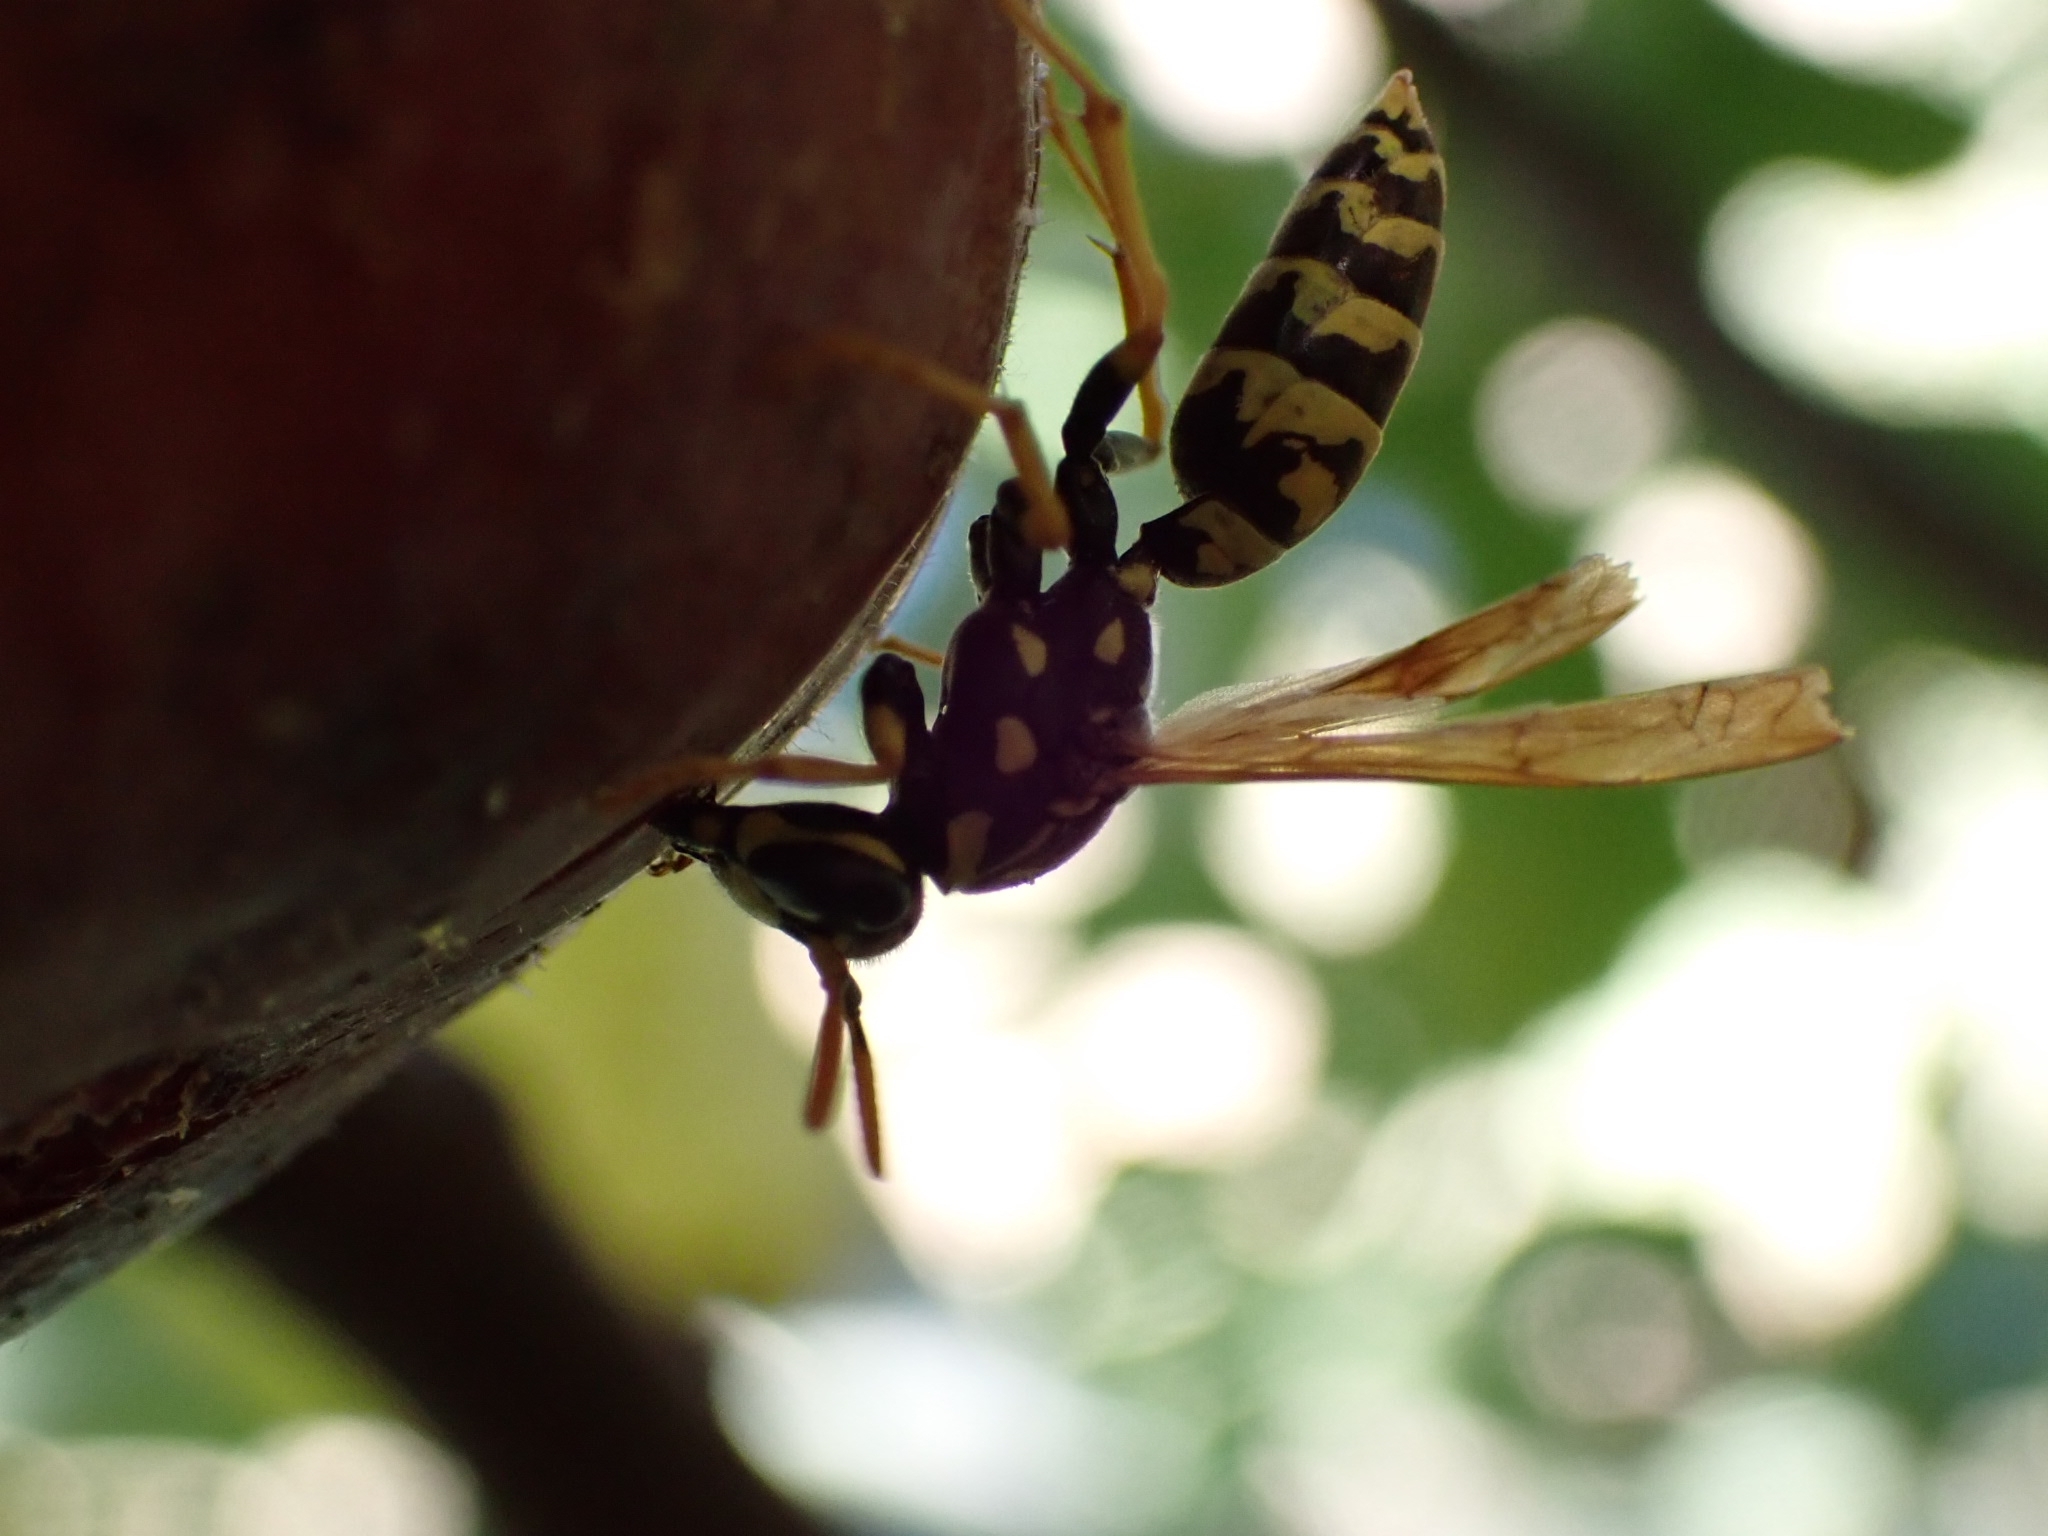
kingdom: Animalia
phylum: Arthropoda
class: Insecta
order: Hymenoptera
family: Eumenidae
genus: Polistes
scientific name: Polistes dominula
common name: Paper wasp
